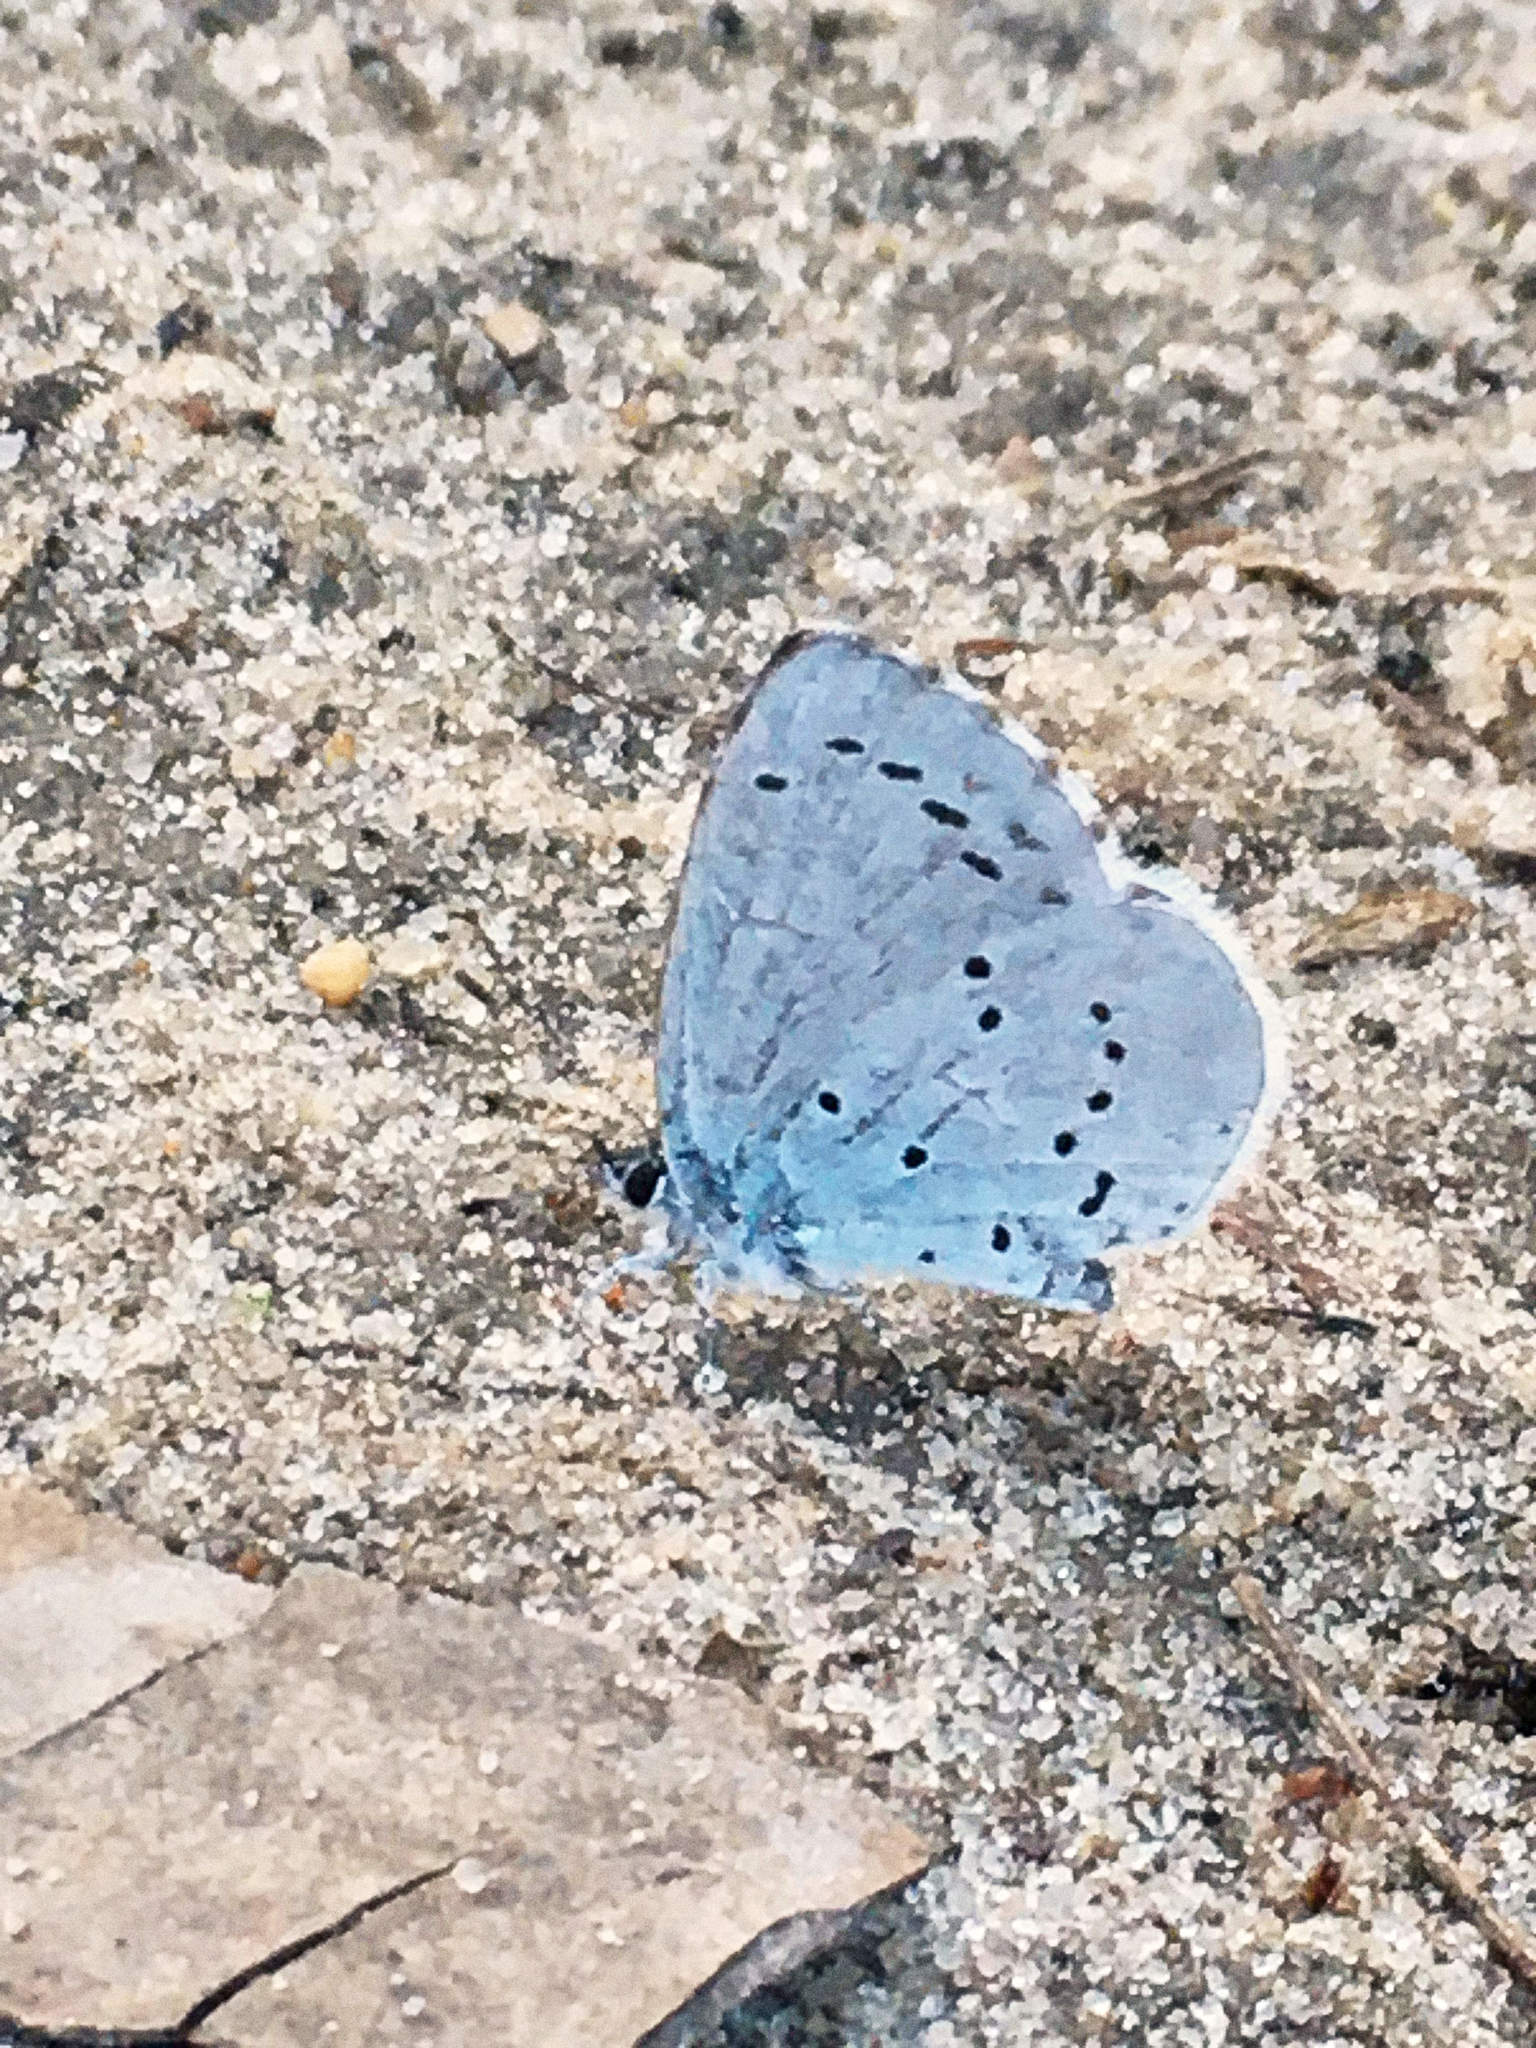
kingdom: Animalia
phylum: Arthropoda
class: Insecta
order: Lepidoptera
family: Lycaenidae
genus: Celastrina
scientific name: Celastrina argiolus
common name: Holly blue
